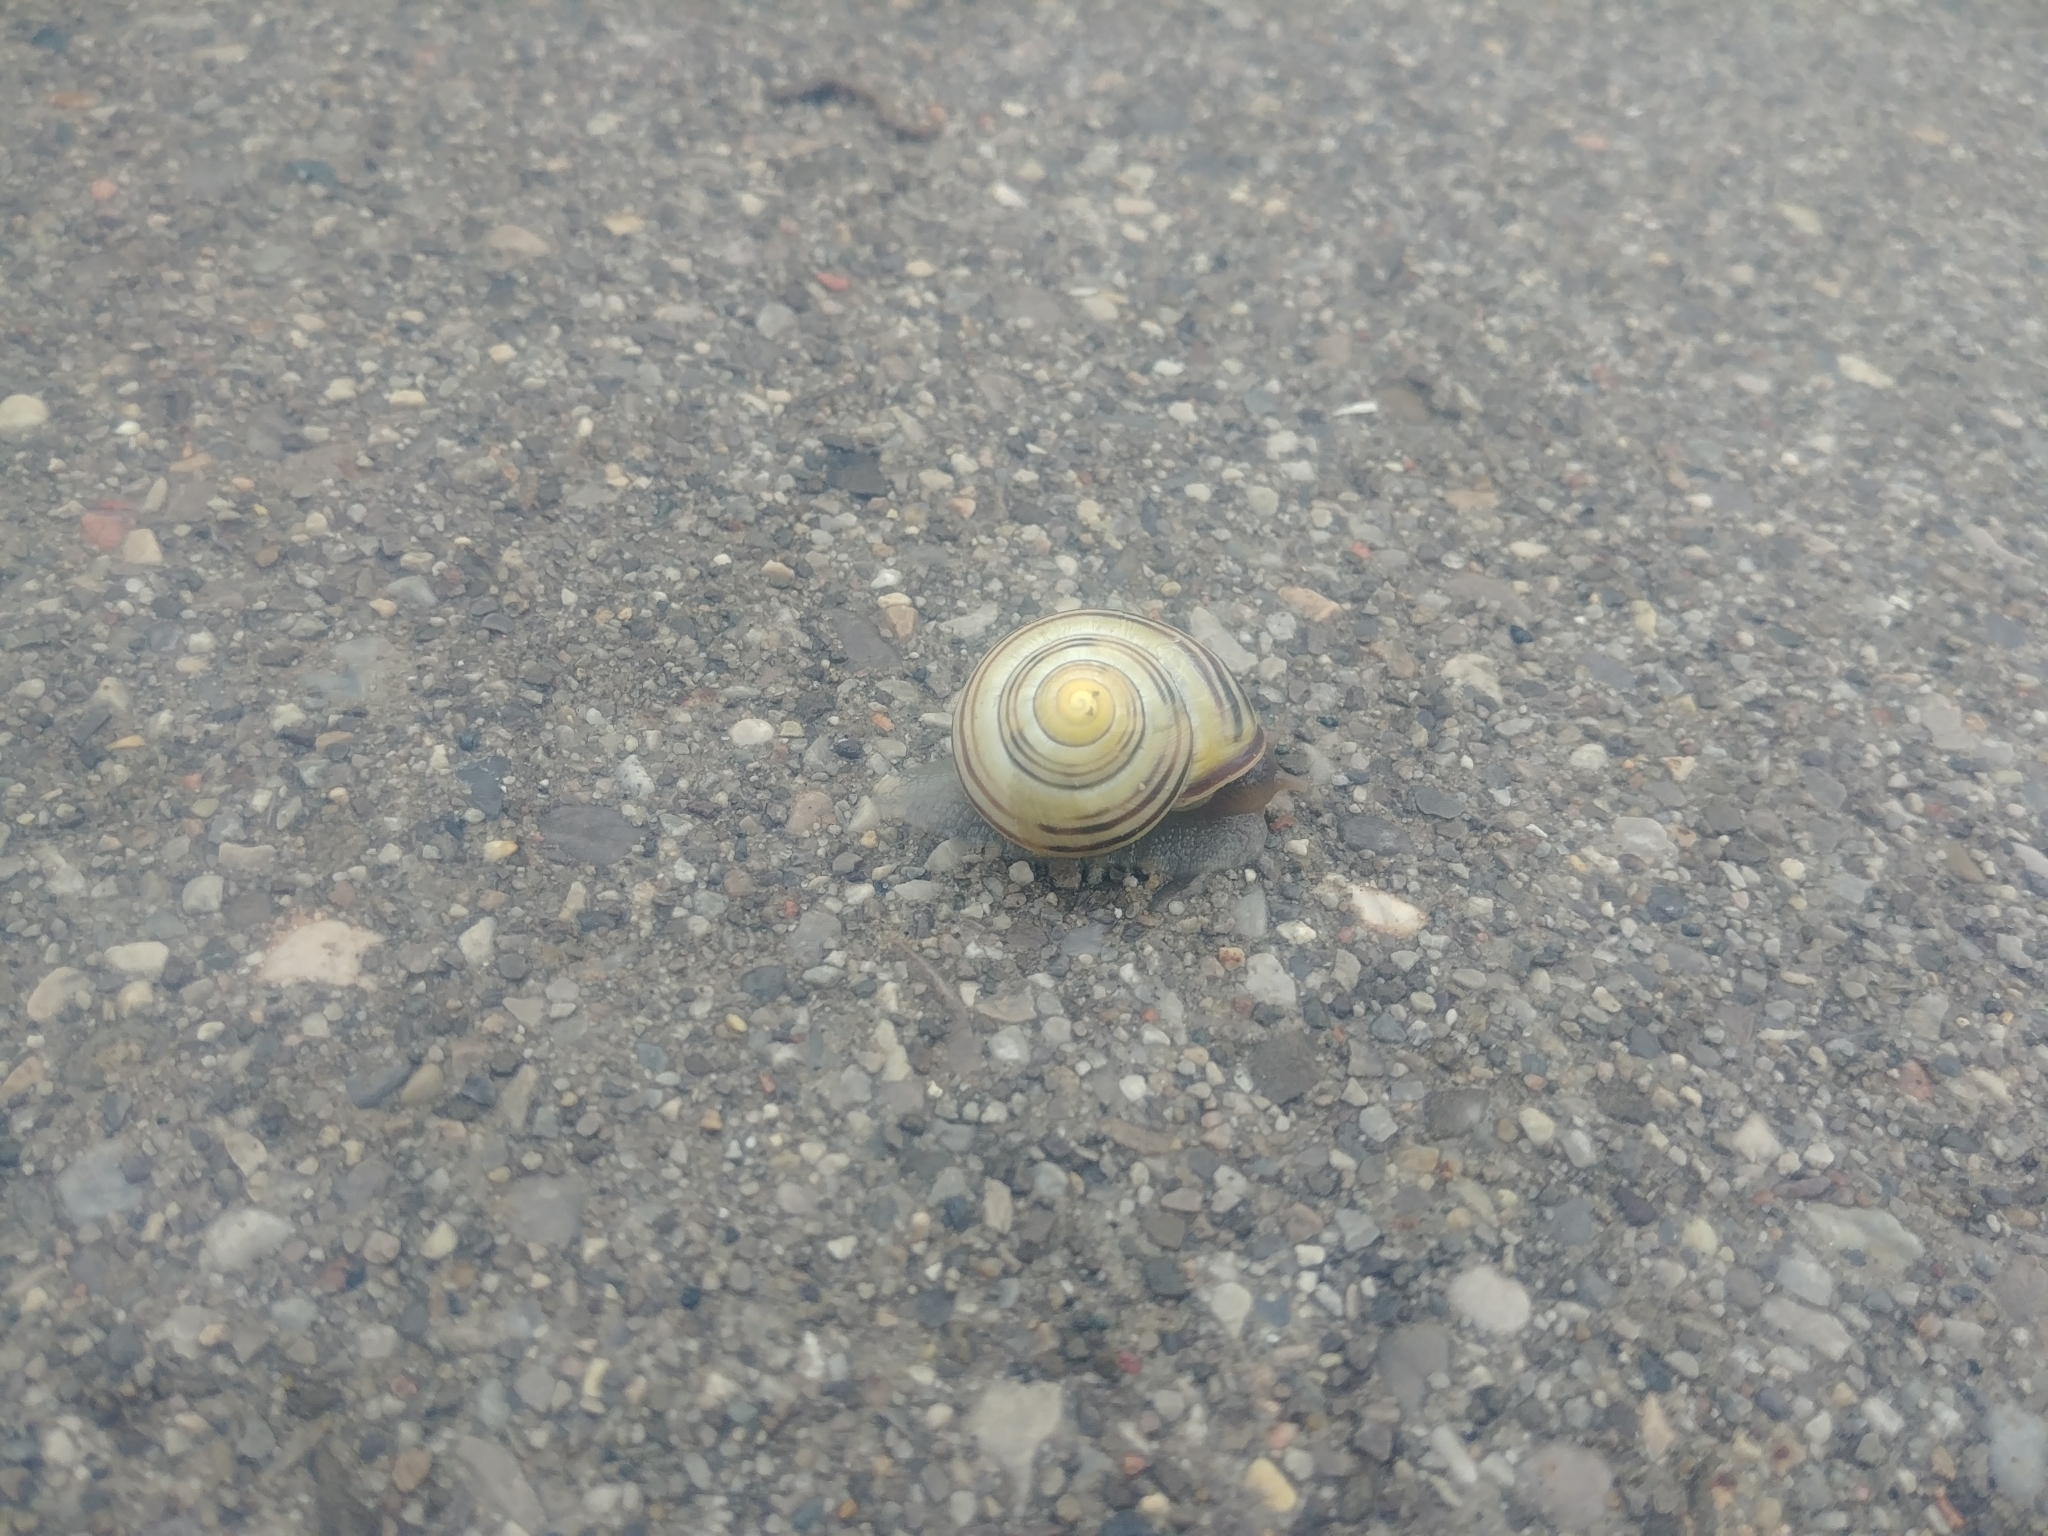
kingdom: Animalia
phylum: Mollusca
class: Gastropoda
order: Stylommatophora
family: Helicidae
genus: Cepaea
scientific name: Cepaea nemoralis
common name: Grovesnail
